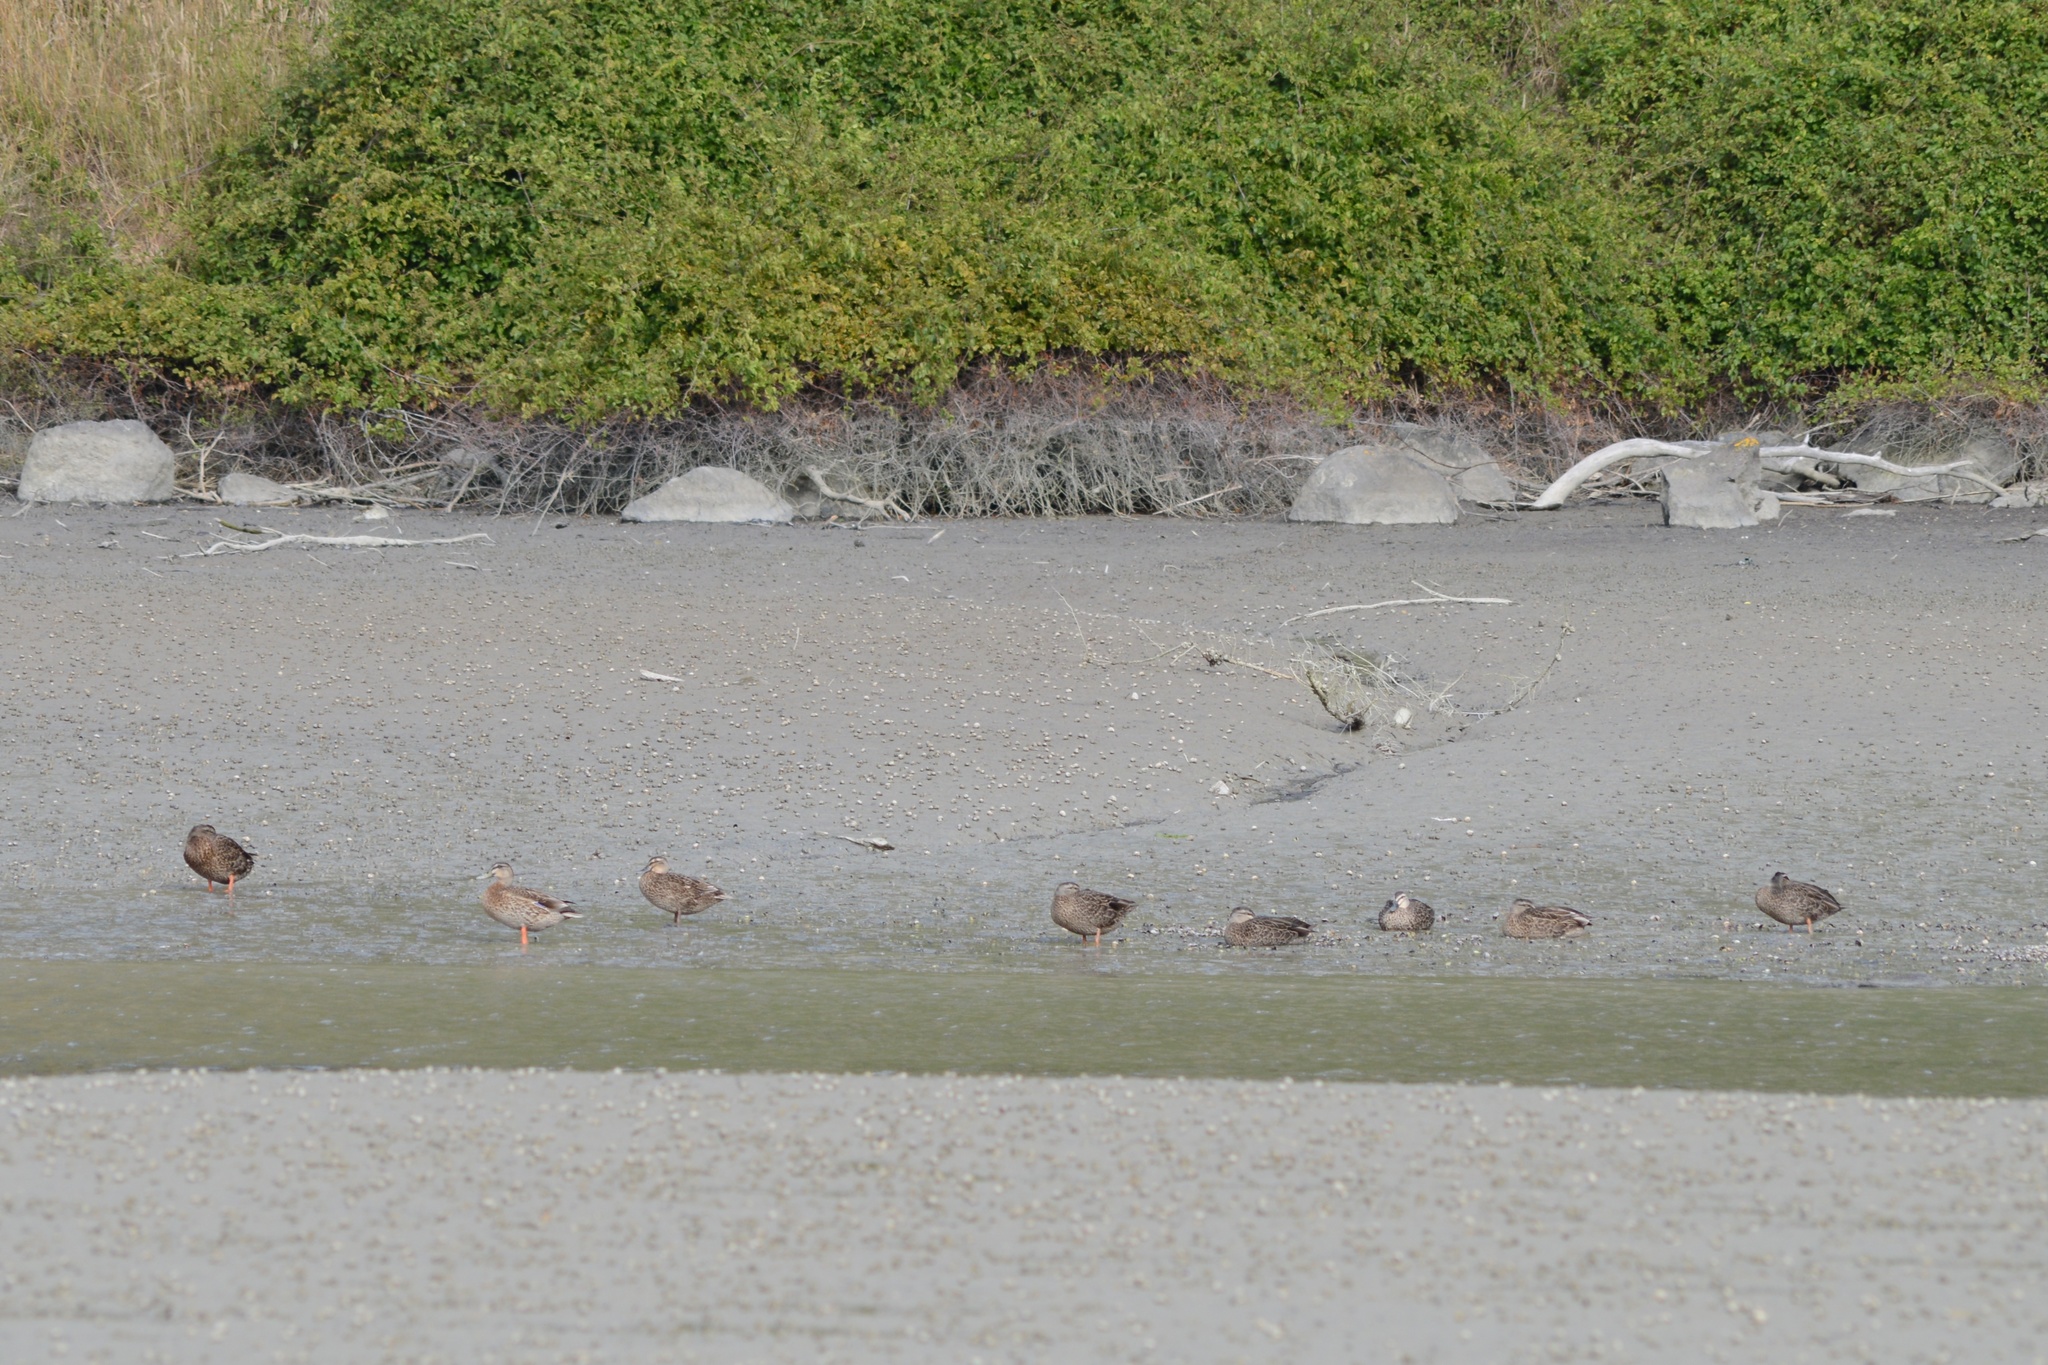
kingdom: Animalia
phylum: Chordata
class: Aves
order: Anseriformes
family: Anatidae
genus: Anas
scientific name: Anas
